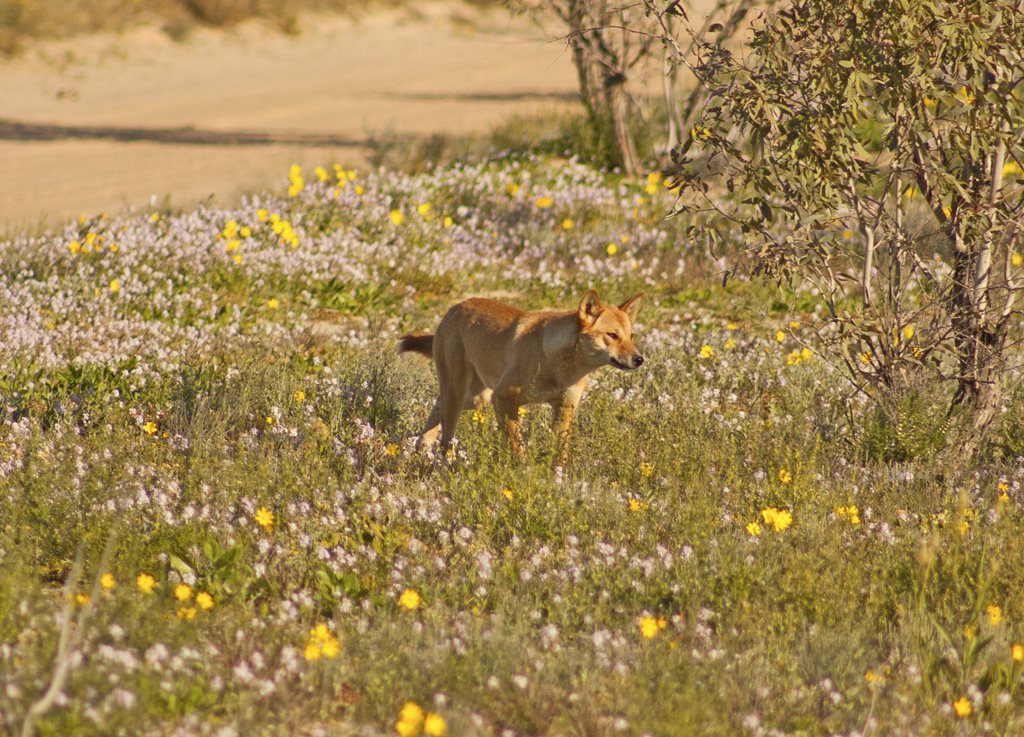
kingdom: Animalia
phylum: Chordata
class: Mammalia
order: Carnivora
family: Canidae
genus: Canis
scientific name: Canis lupus
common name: Gray wolf
